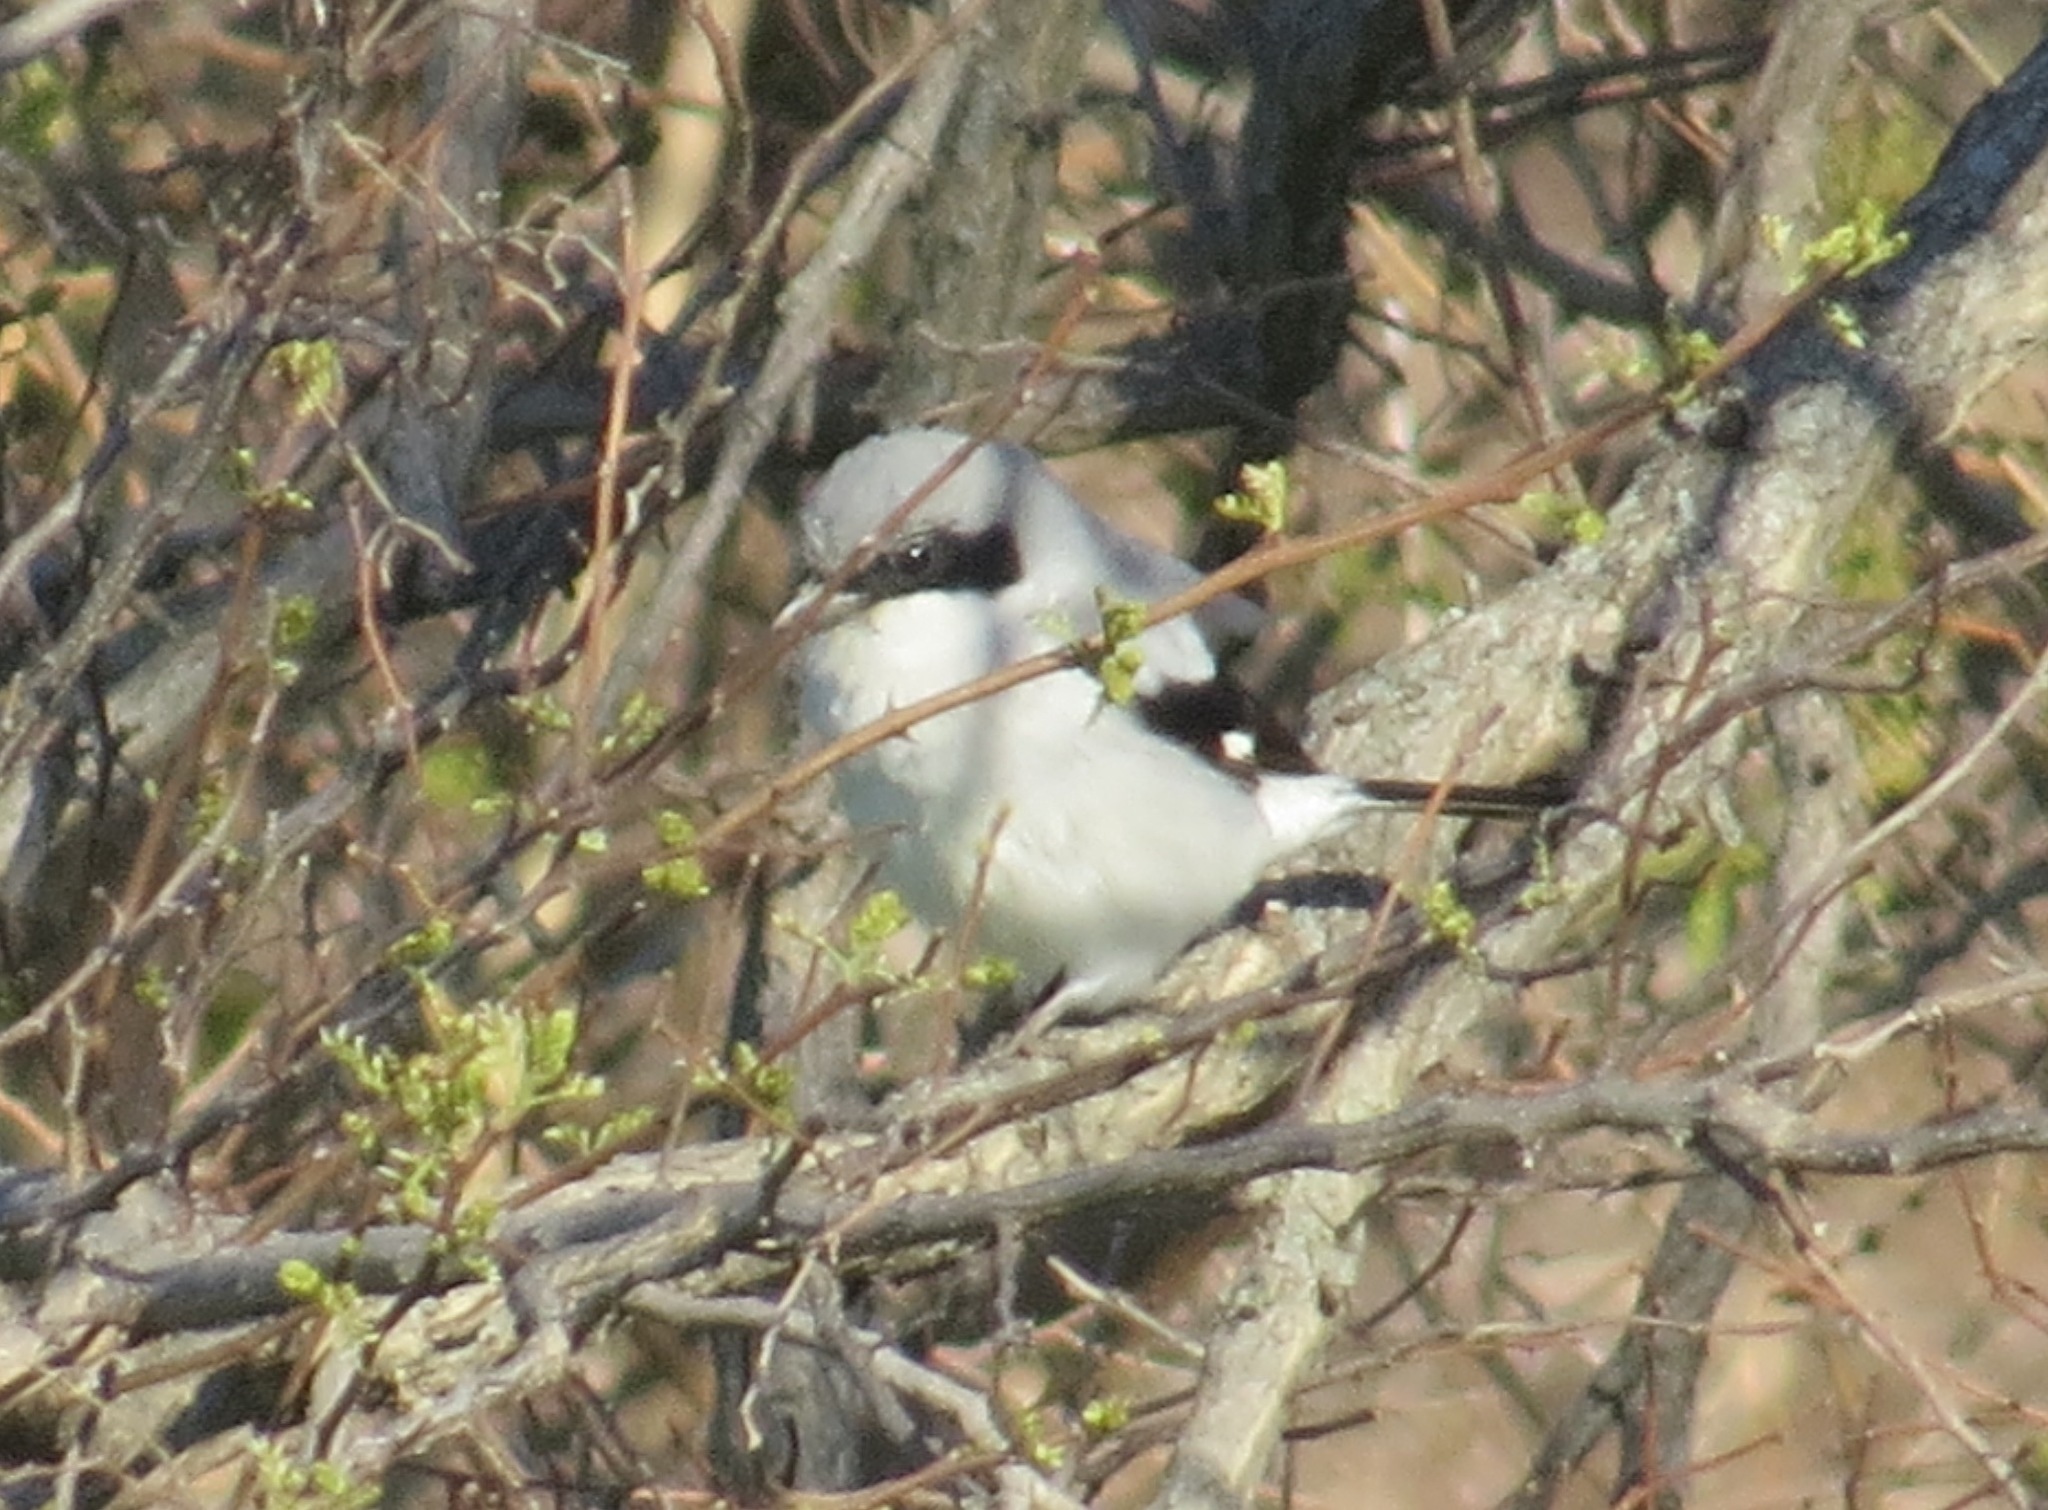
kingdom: Animalia
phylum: Chordata
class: Aves
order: Passeriformes
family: Laniidae
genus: Lanius
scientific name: Lanius ludovicianus
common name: Loggerhead shrike
